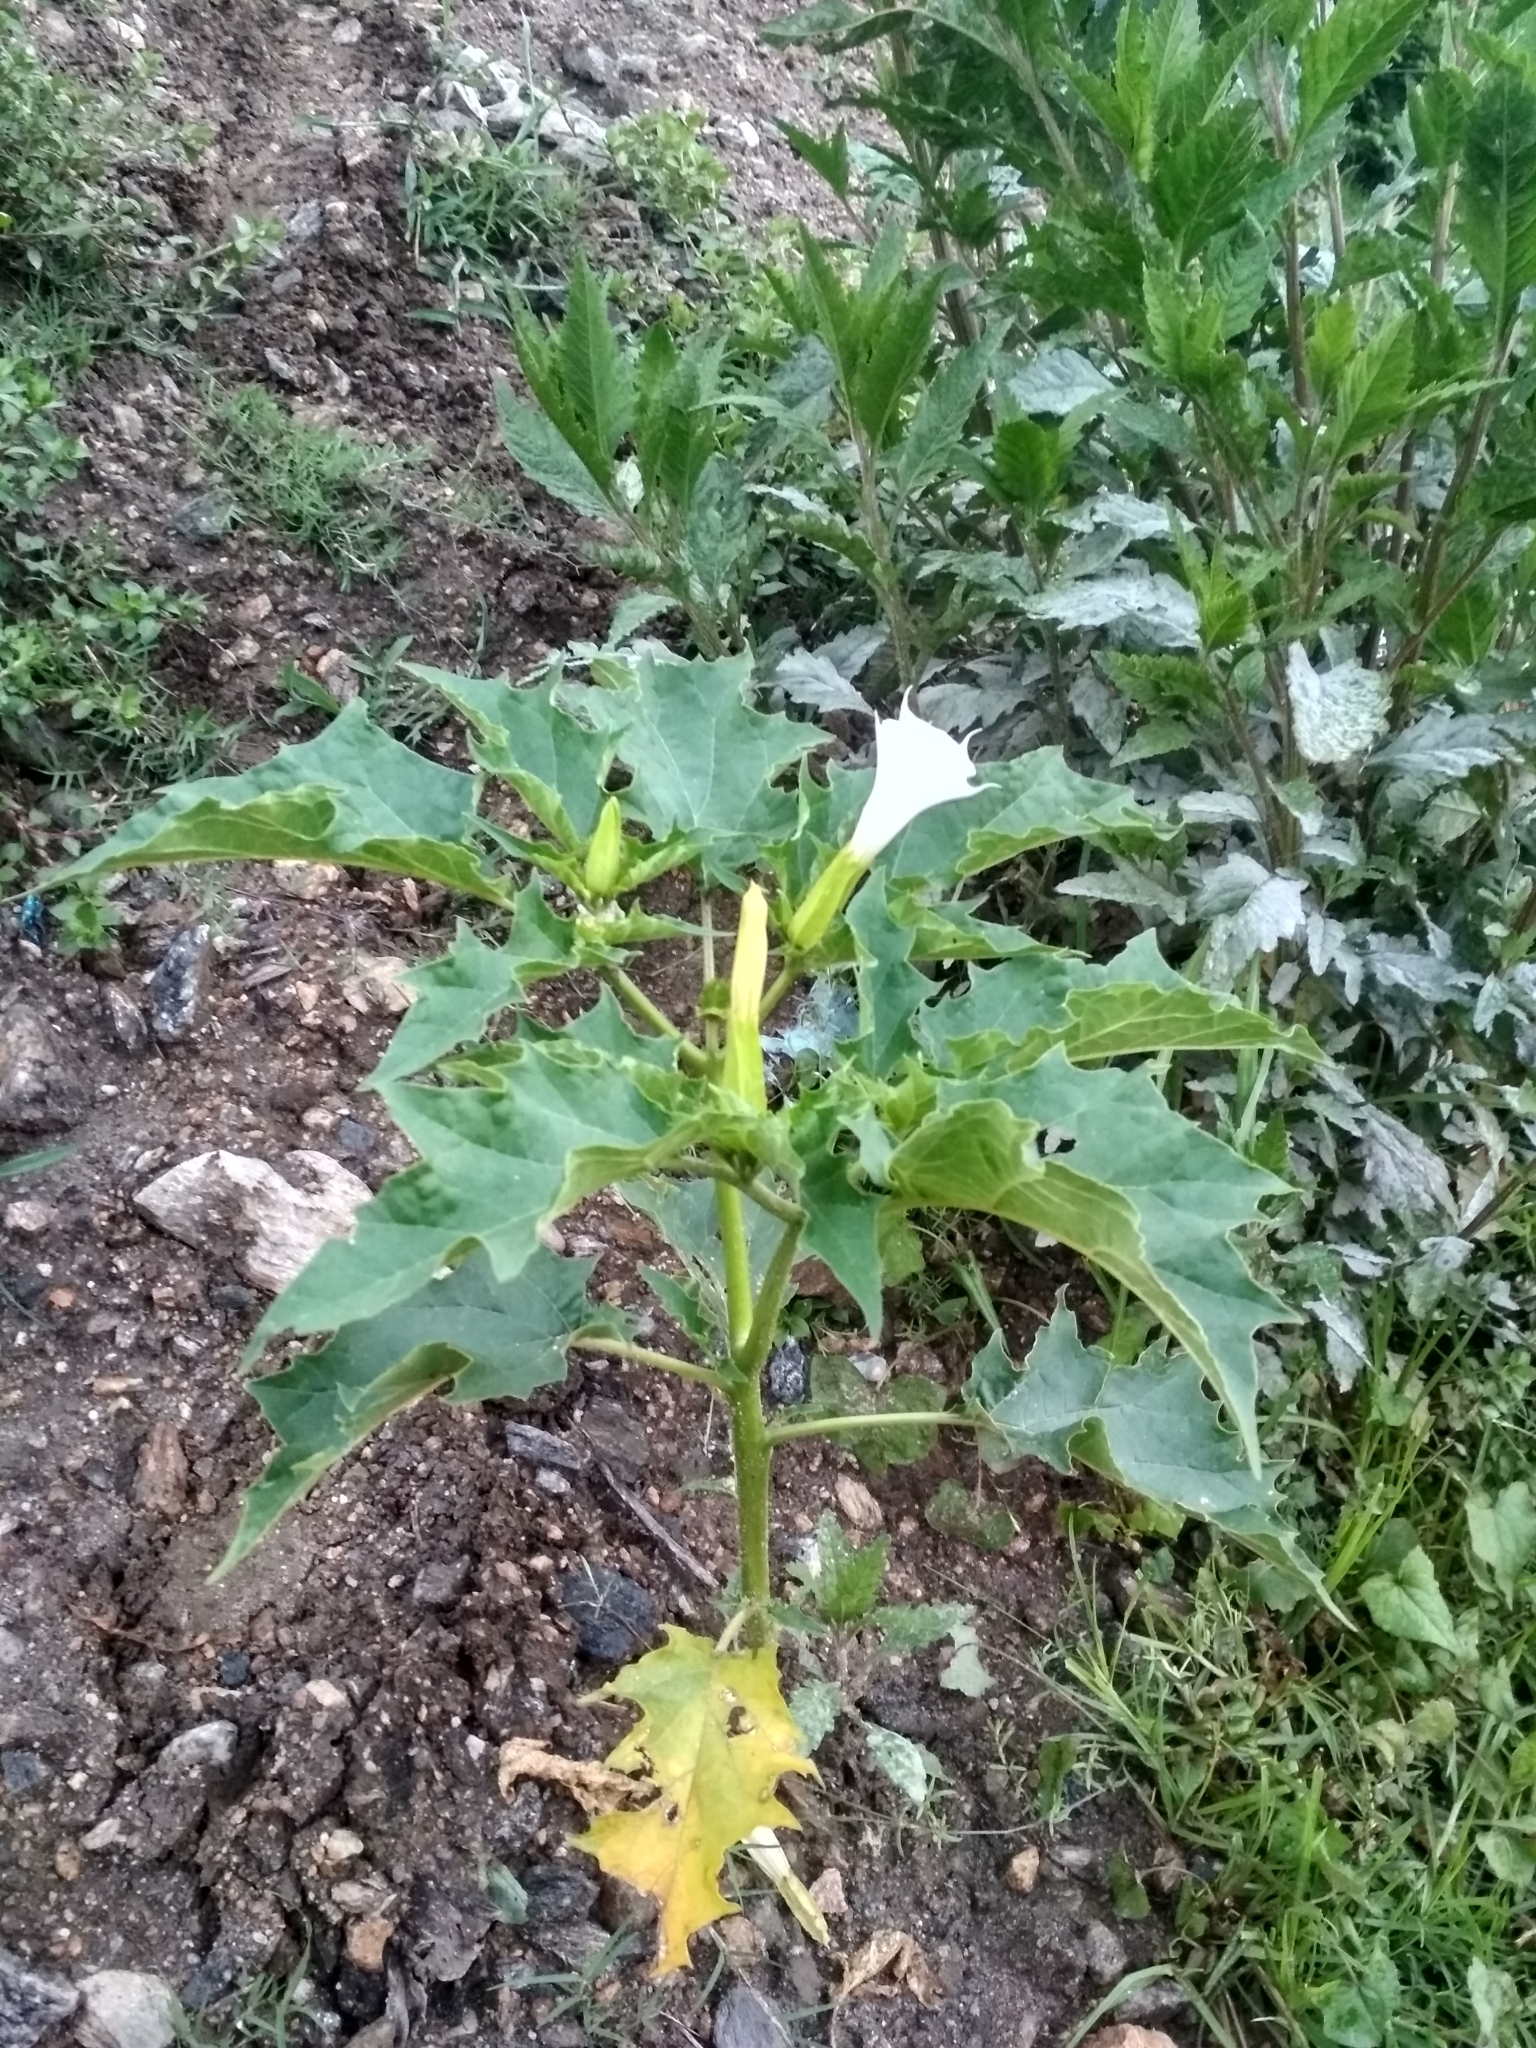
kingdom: Plantae
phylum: Tracheophyta
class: Magnoliopsida
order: Solanales
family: Solanaceae
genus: Datura
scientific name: Datura stramonium
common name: Thorn-apple
